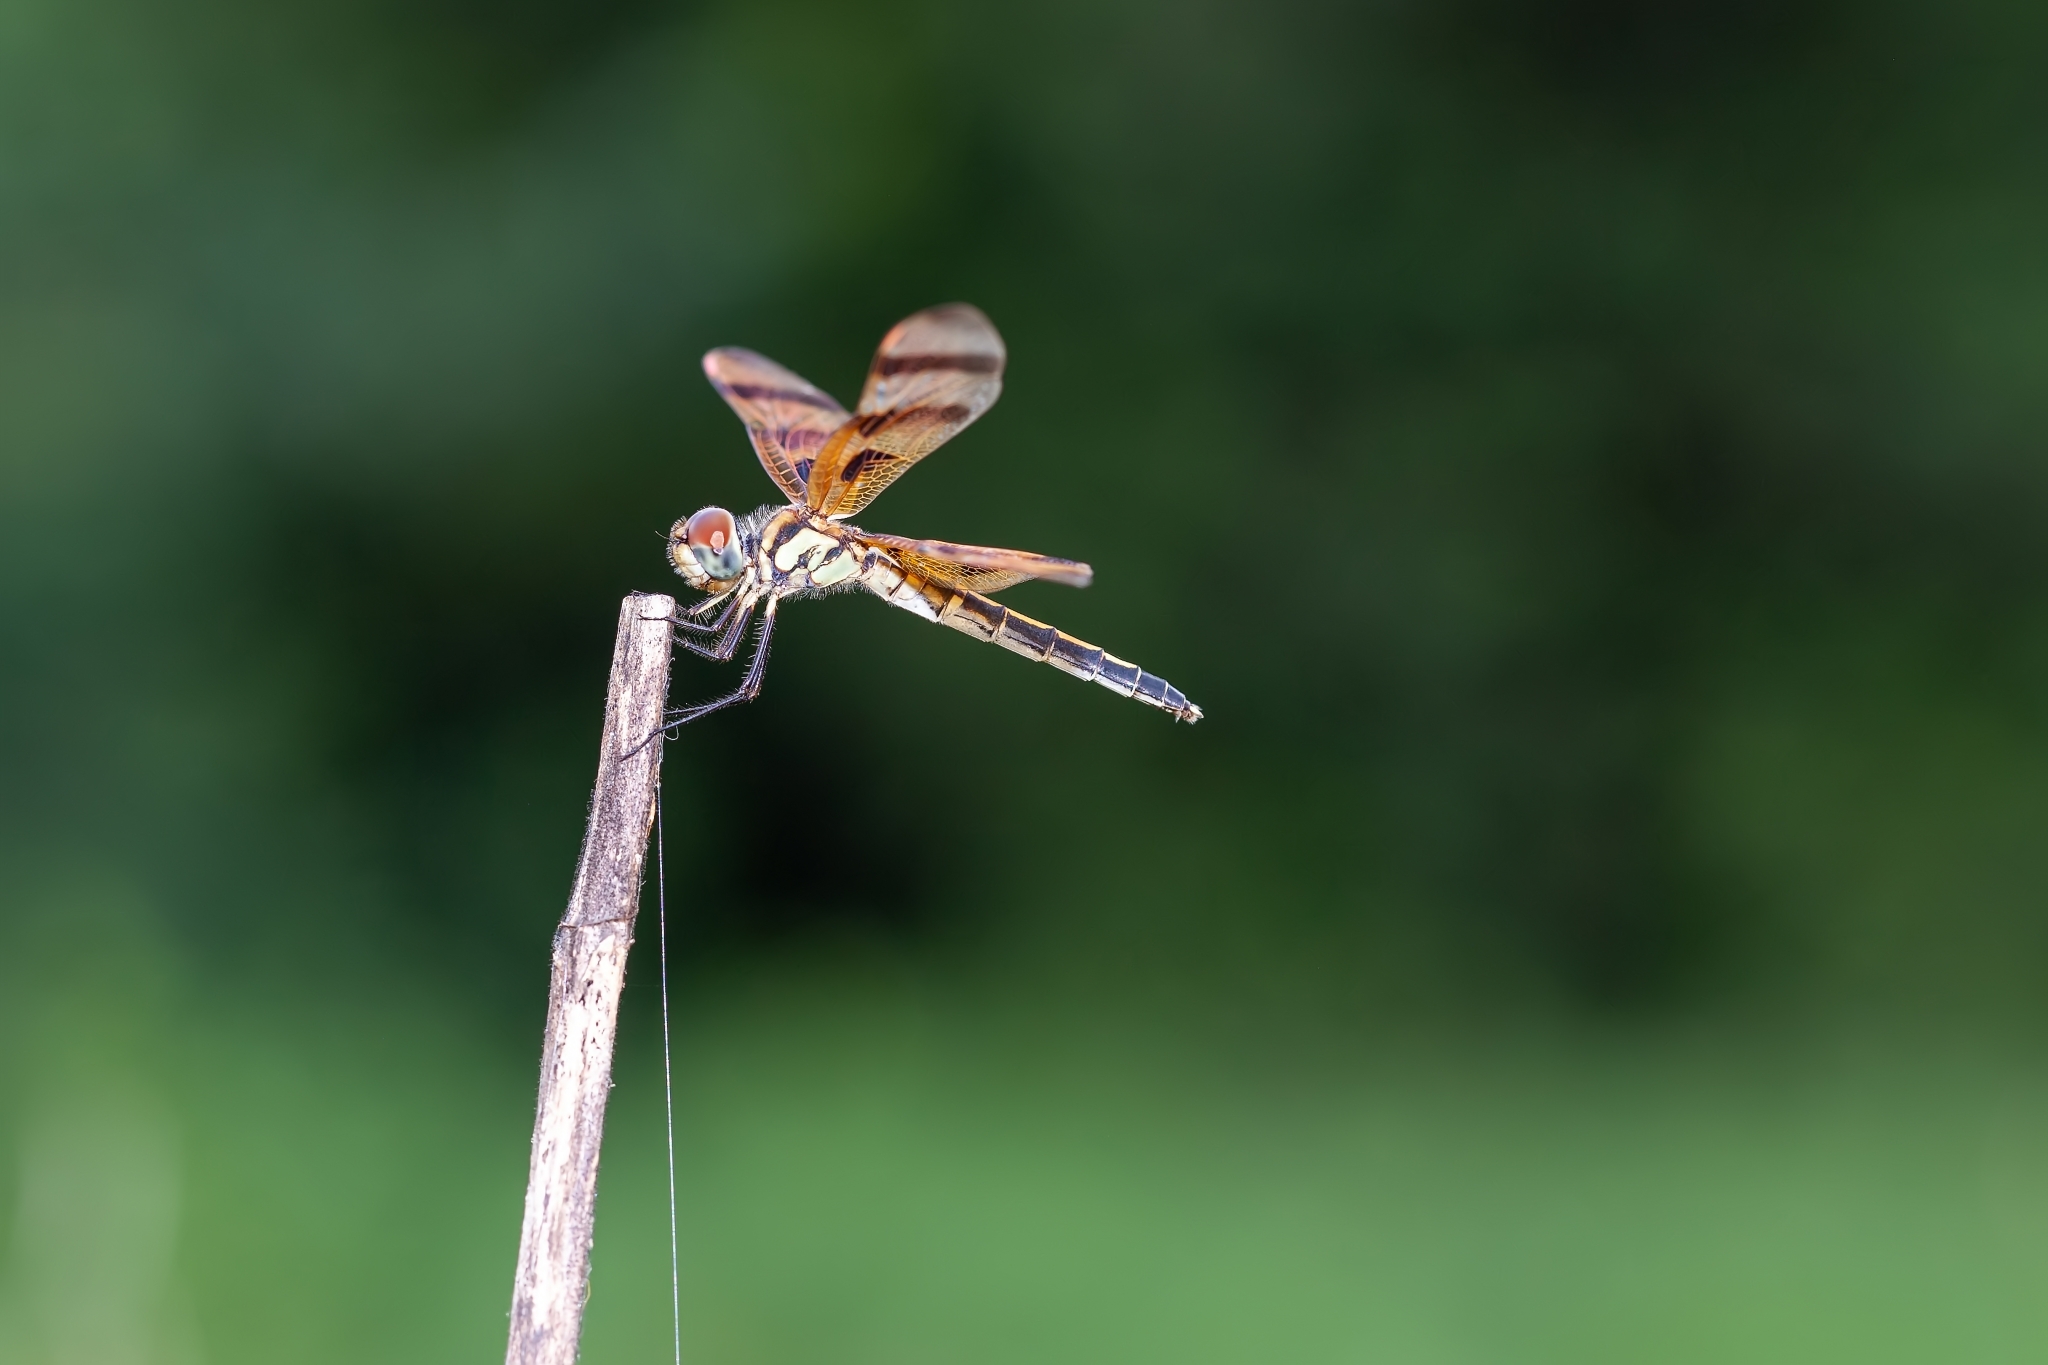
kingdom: Animalia
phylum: Arthropoda
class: Insecta
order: Odonata
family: Libellulidae
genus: Celithemis
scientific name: Celithemis eponina
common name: Halloween pennant
